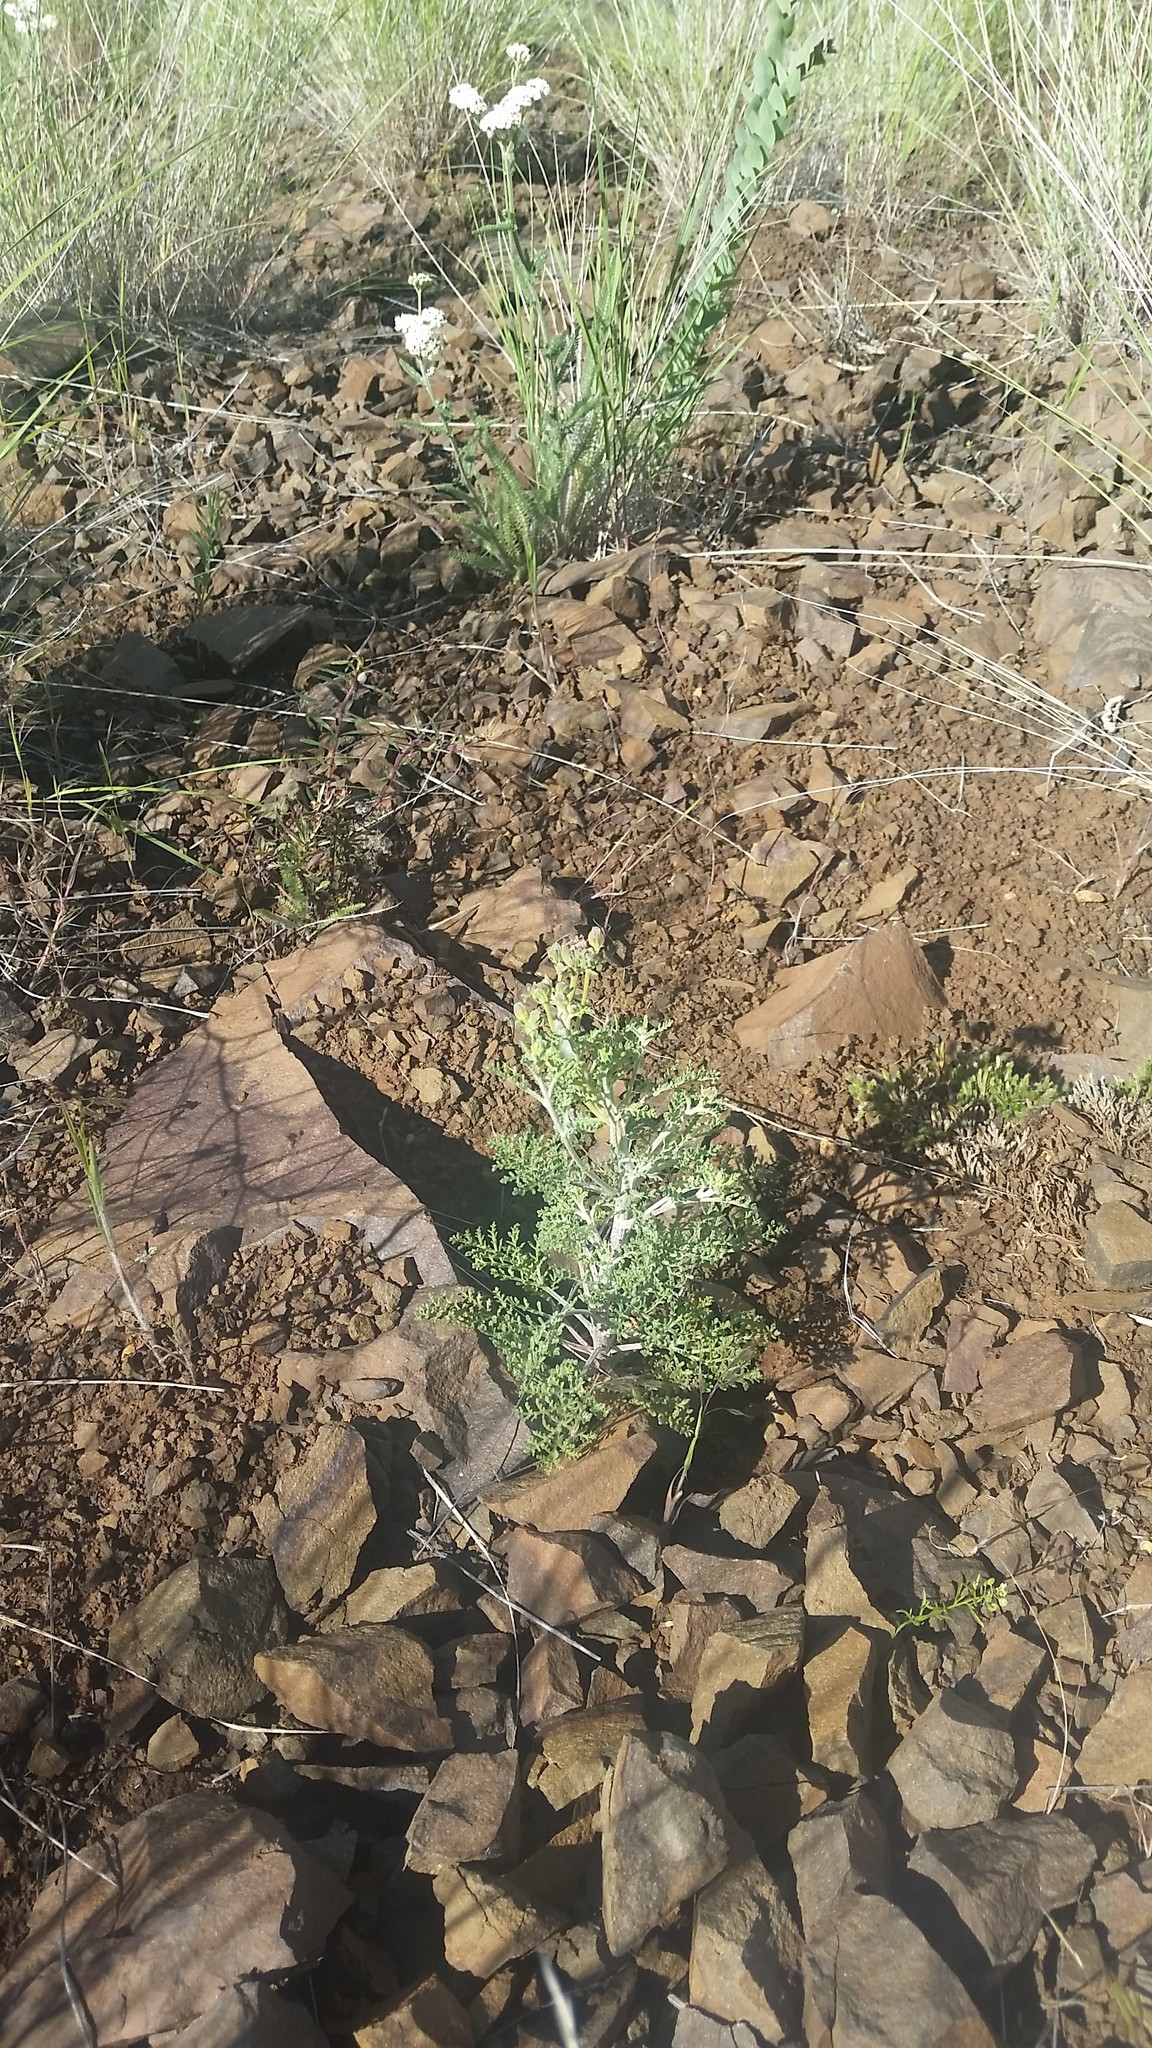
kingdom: Plantae
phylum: Tracheophyta
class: Magnoliopsida
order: Asterales
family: Asteraceae
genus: Chaenactis
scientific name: Chaenactis douglasii
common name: Hoary pincushion
